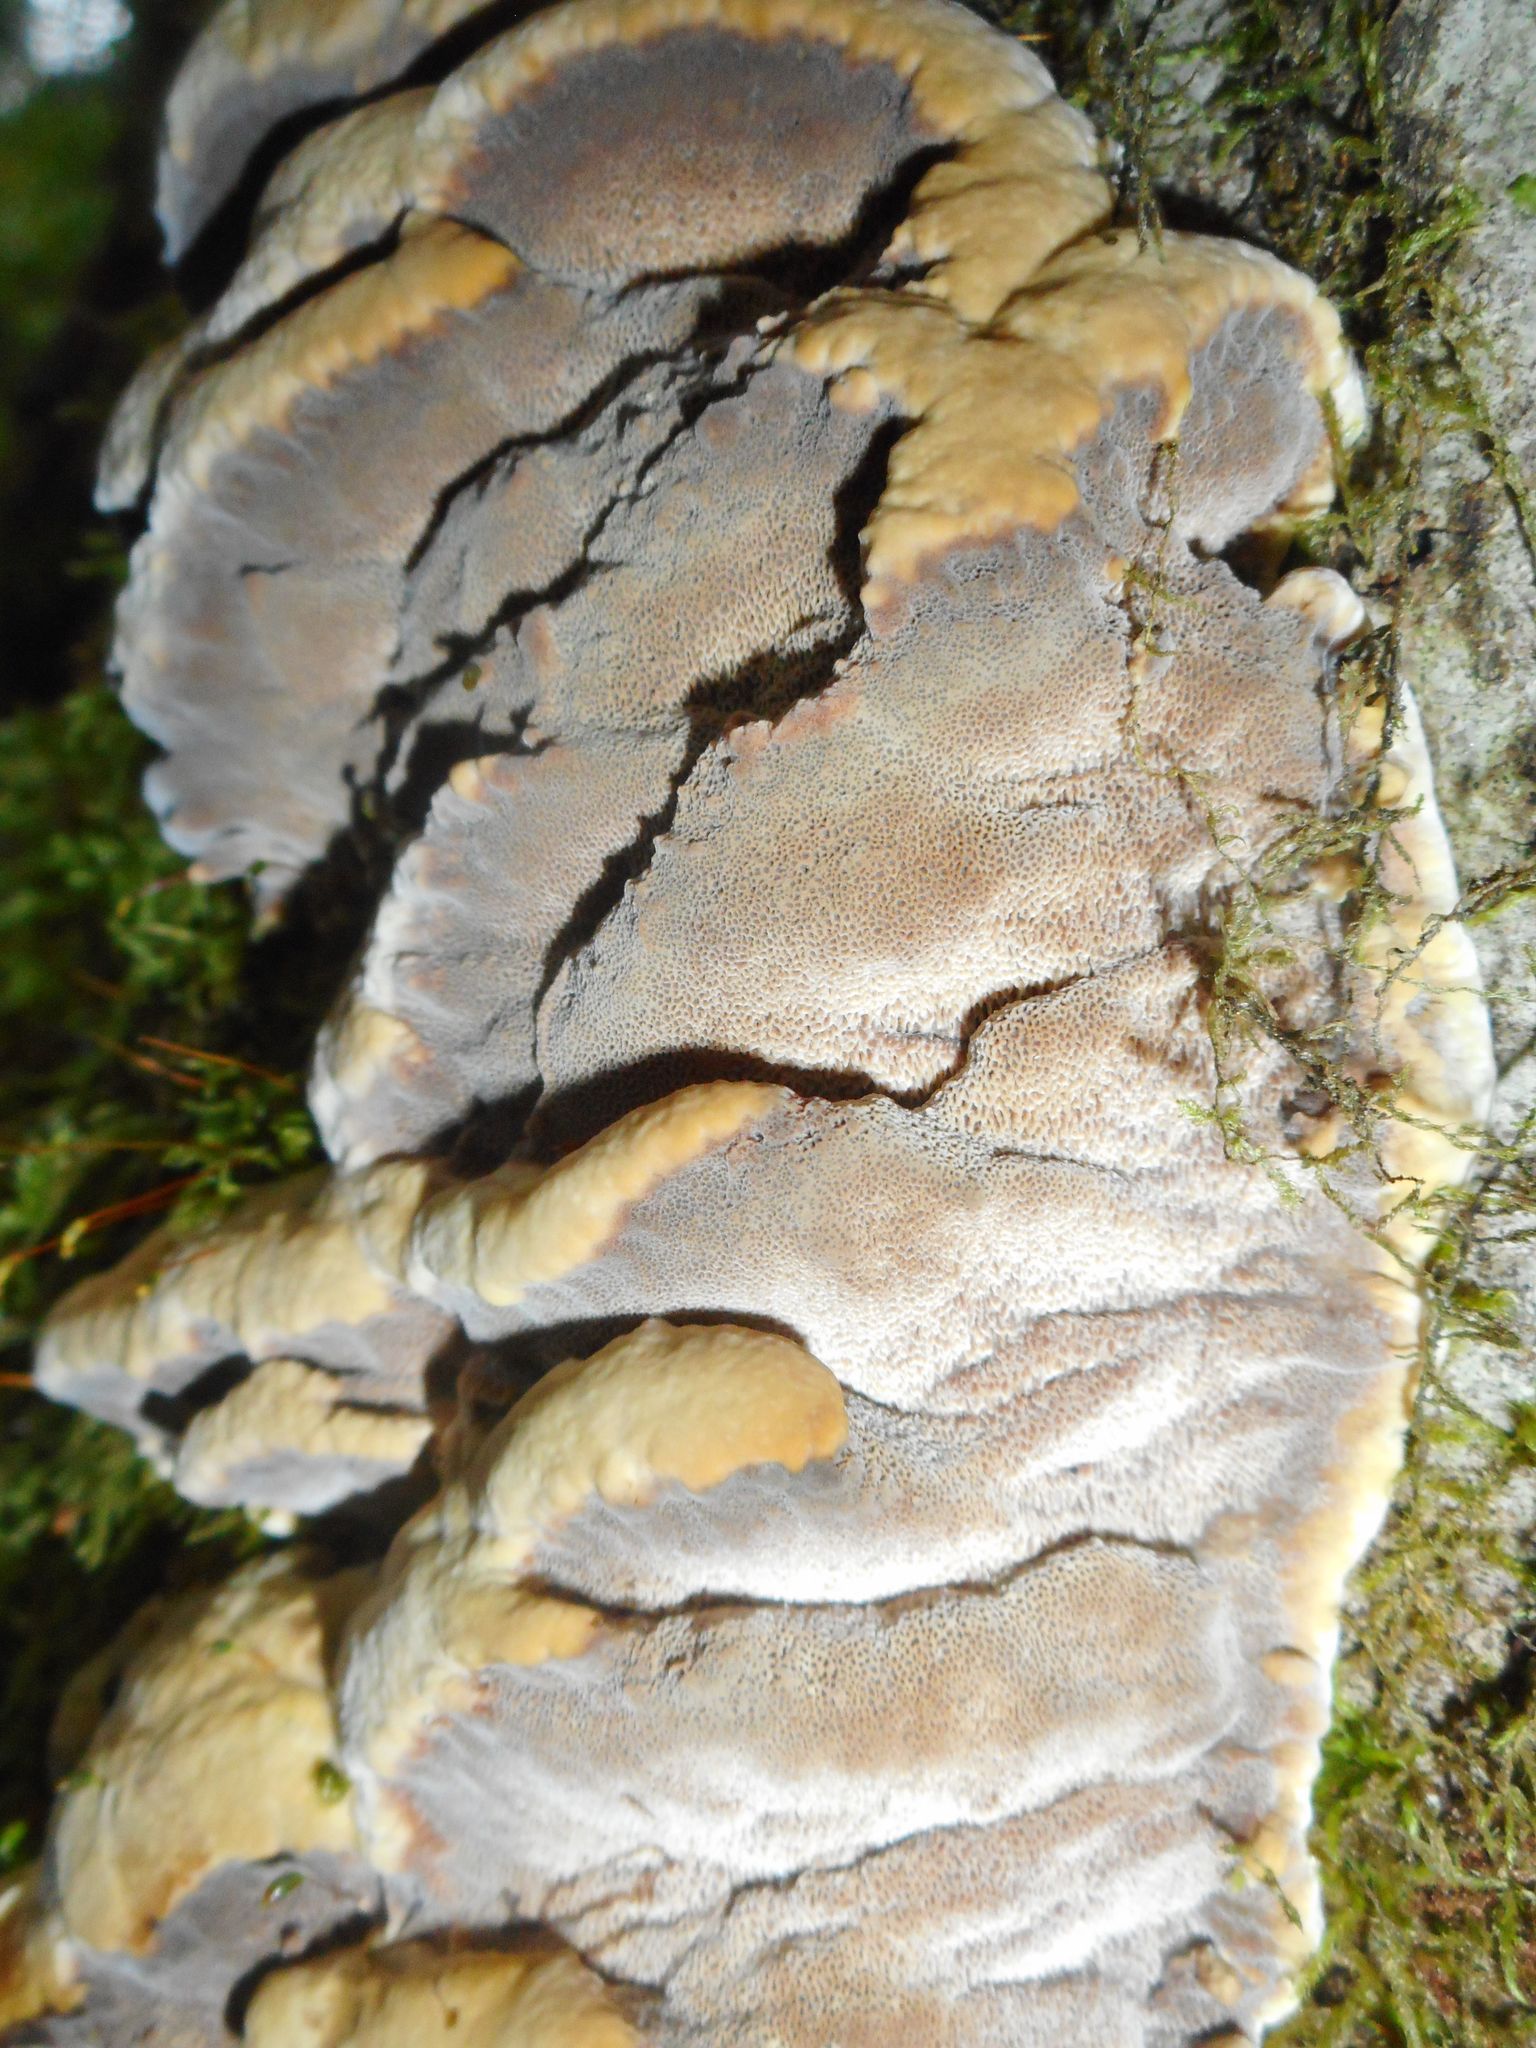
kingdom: Fungi
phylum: Basidiomycota
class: Agaricomycetes
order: Hymenochaetales
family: Hymenochaetaceae
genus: Xanthoporia
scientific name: Xanthoporia radiata
